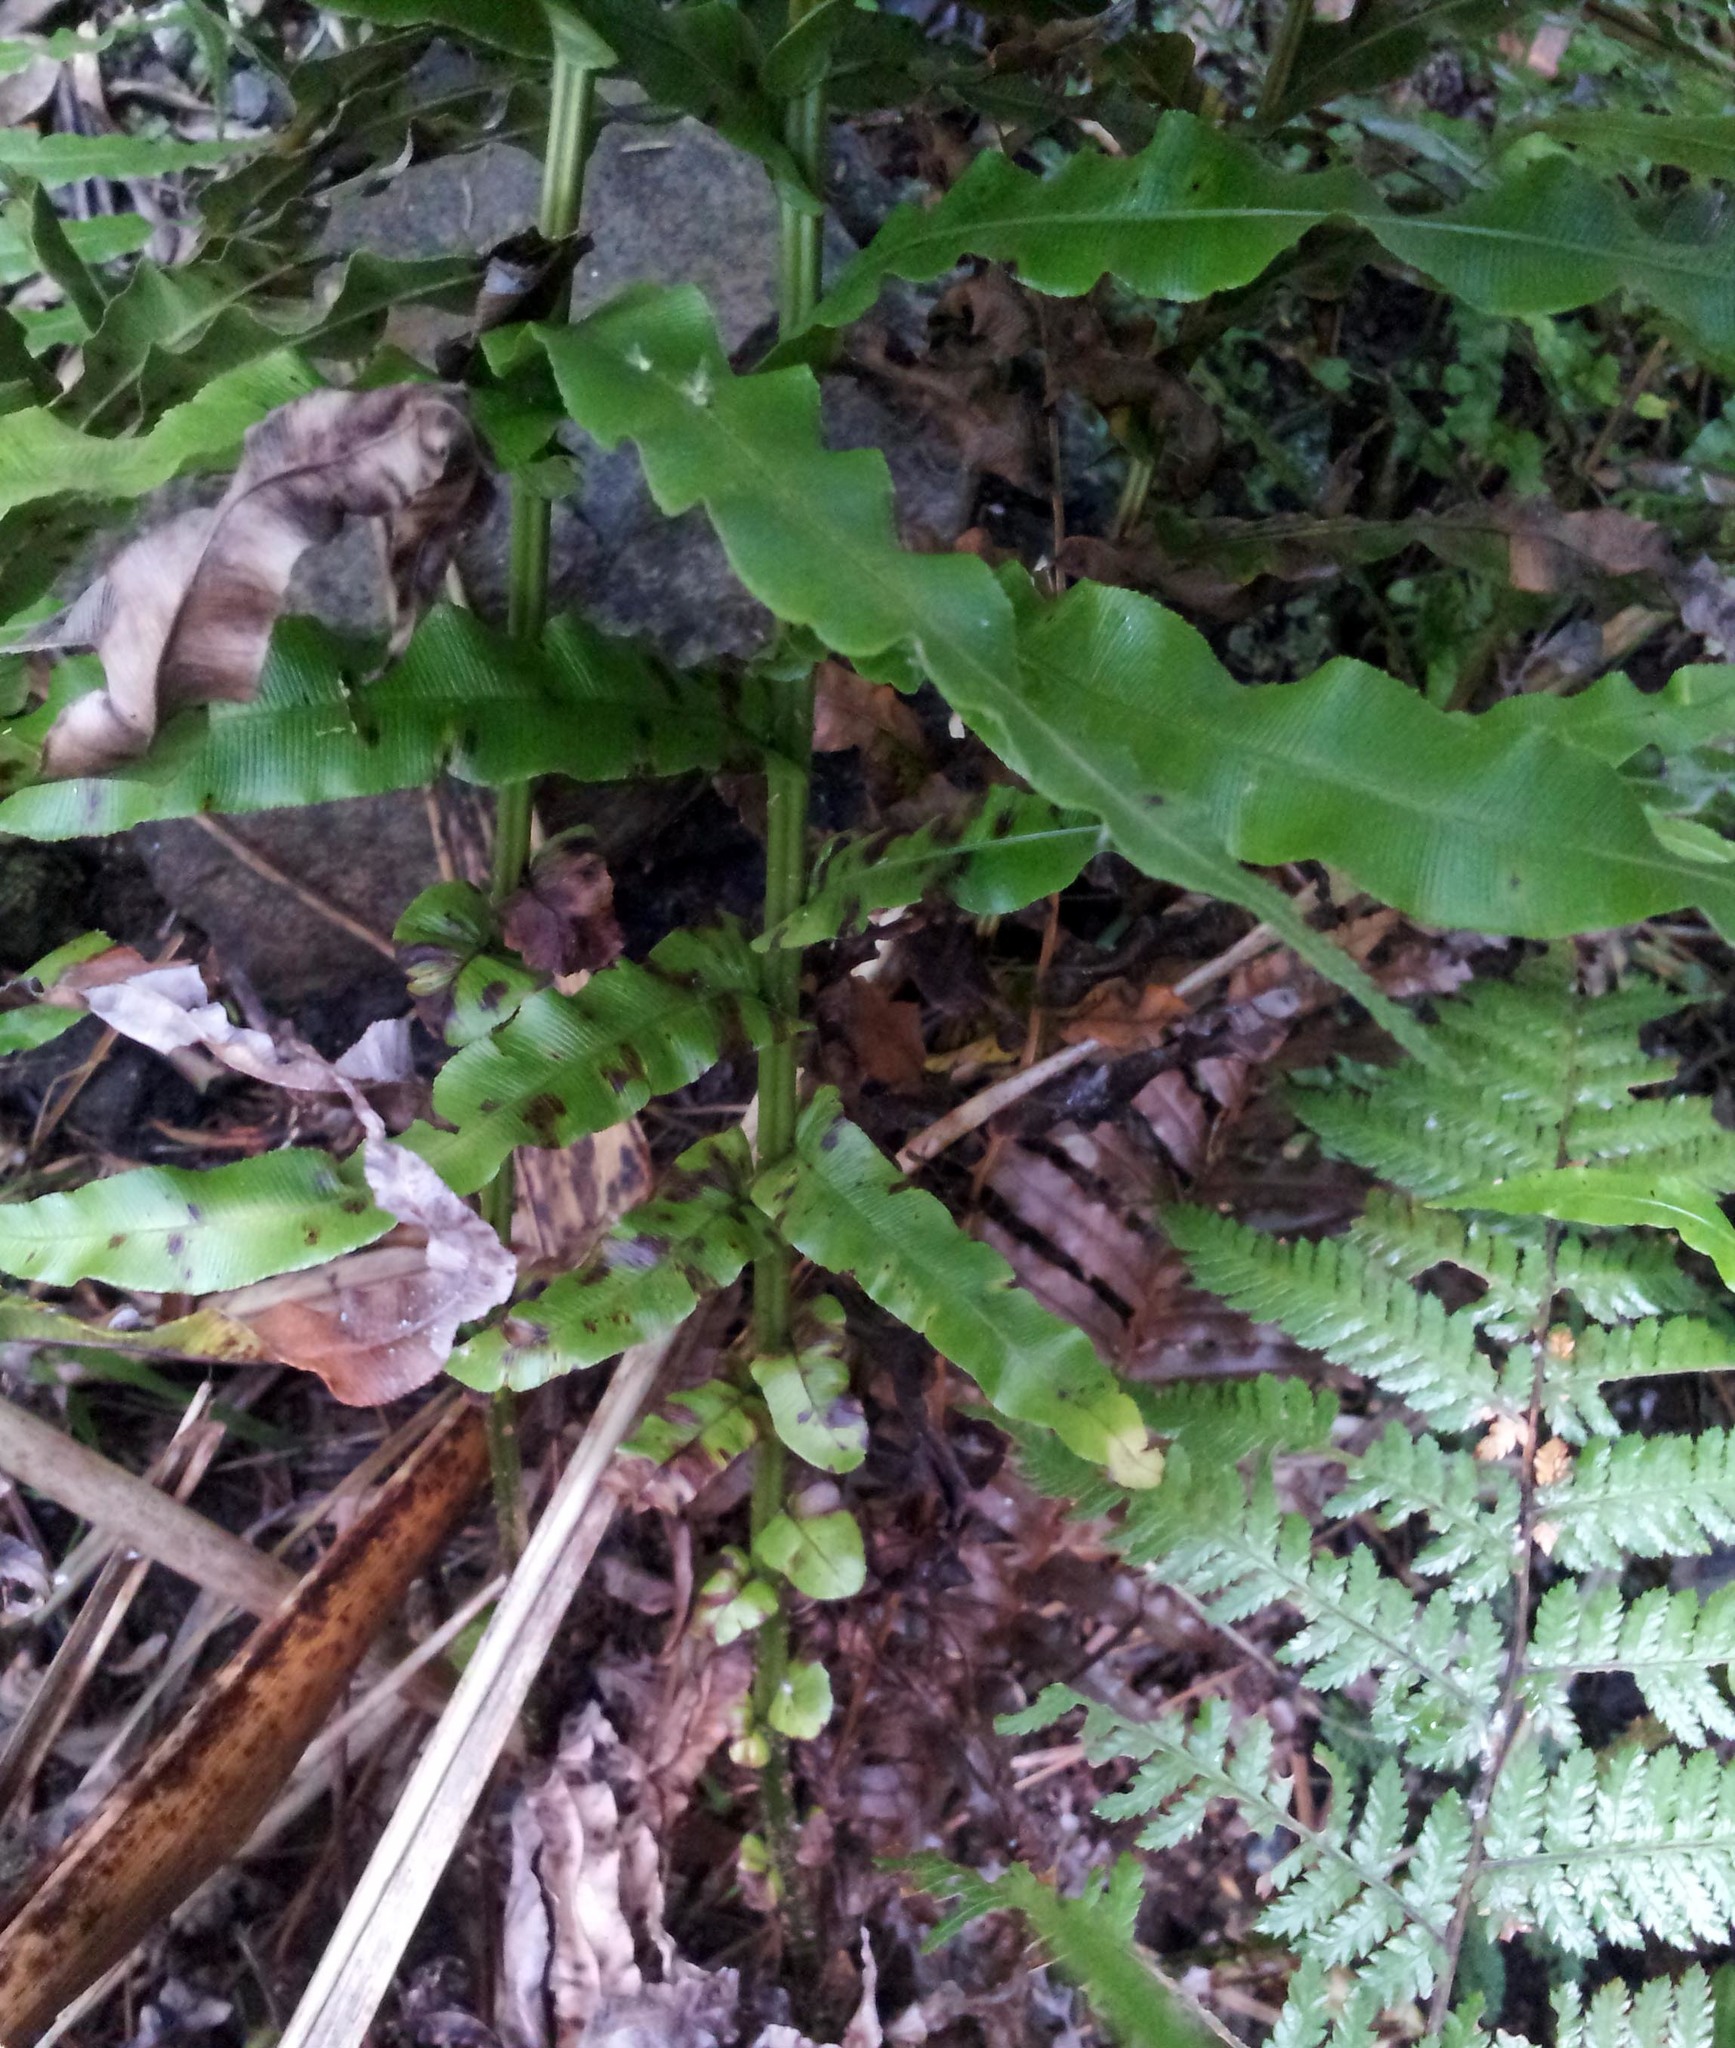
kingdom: Plantae
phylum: Tracheophyta
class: Polypodiopsida
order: Polypodiales
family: Blechnaceae
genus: Parablechnum
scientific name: Parablechnum novae-zelandiae
